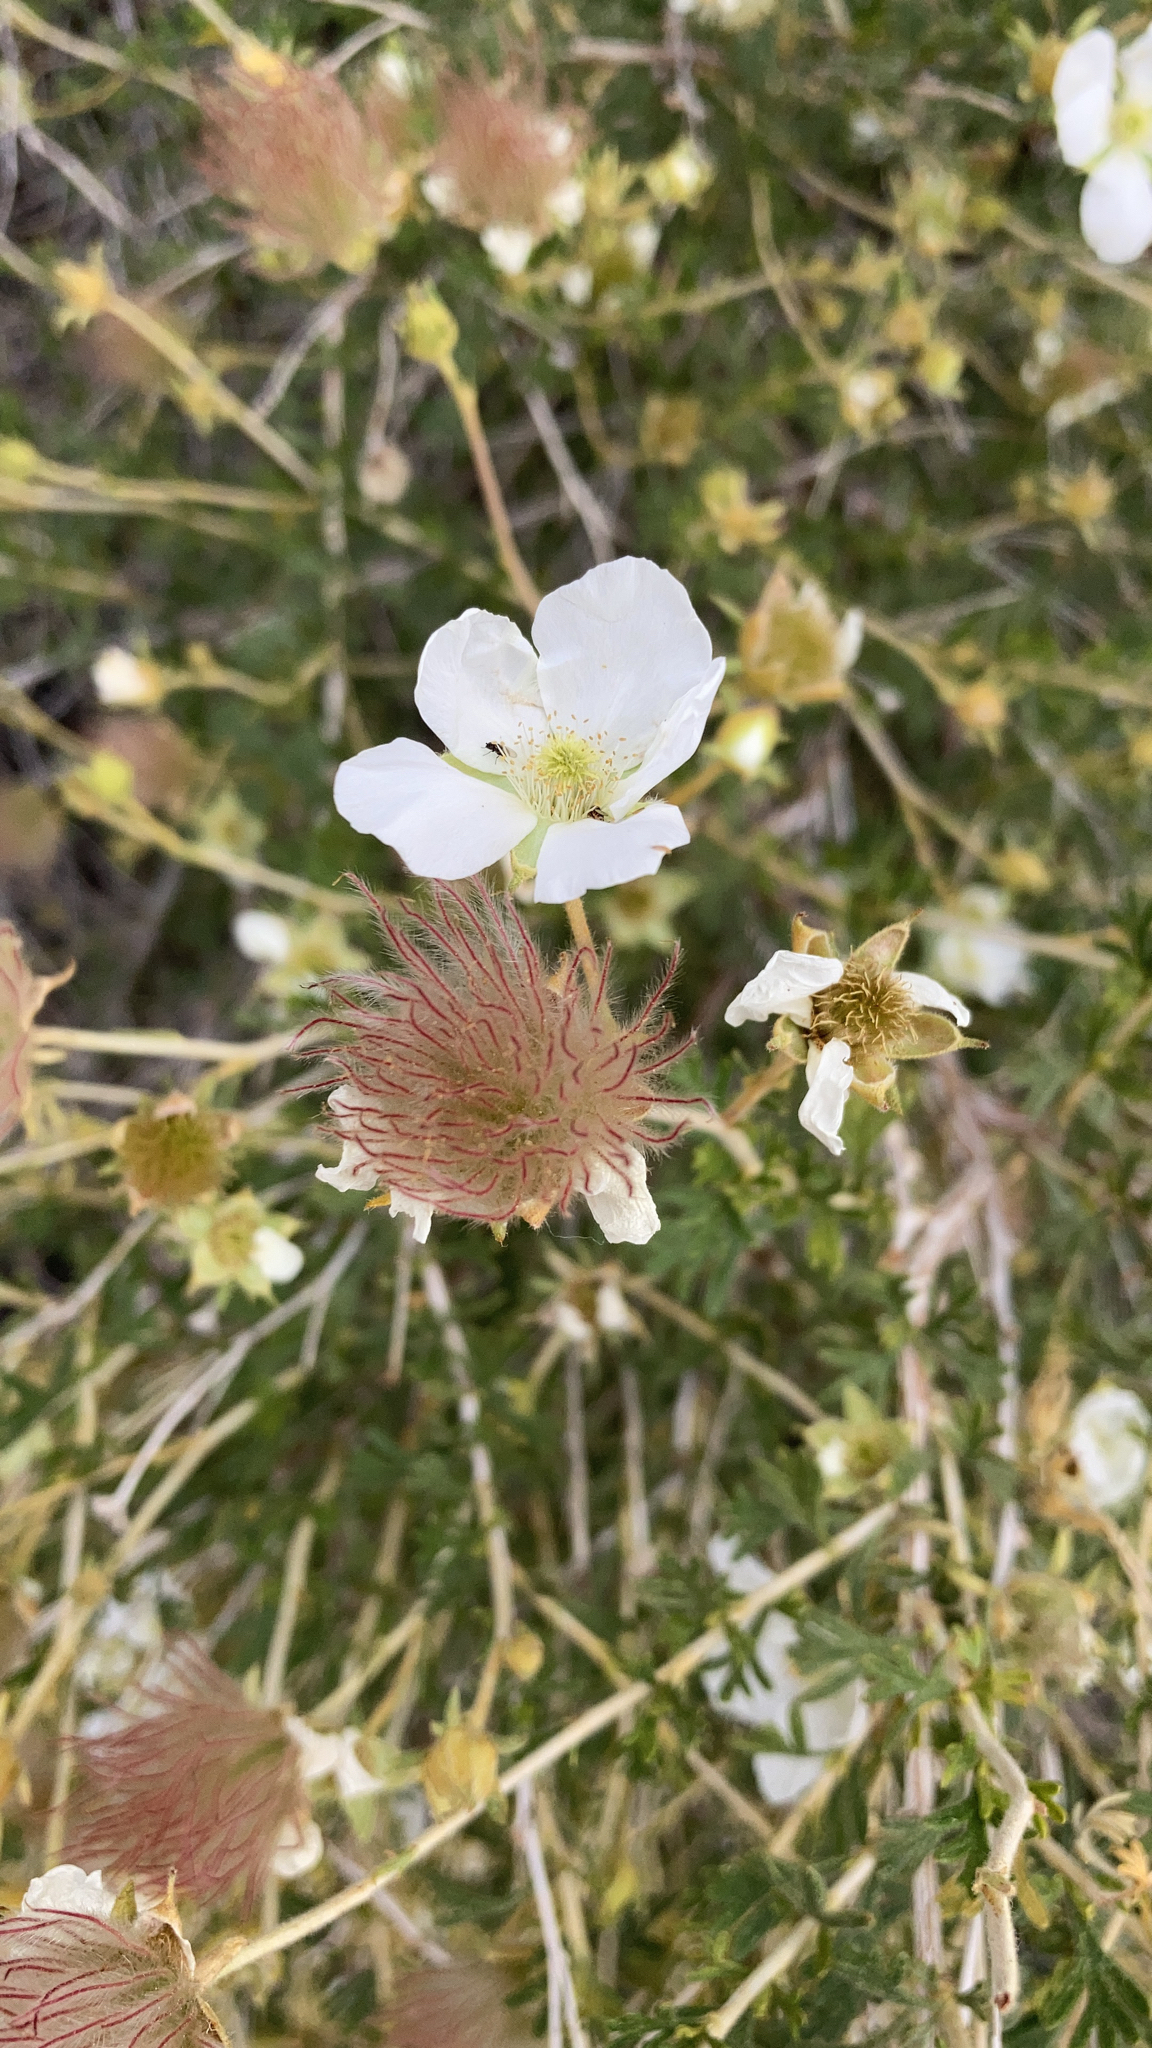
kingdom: Plantae
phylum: Tracheophyta
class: Magnoliopsida
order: Rosales
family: Rosaceae
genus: Fallugia
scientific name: Fallugia paradoxa
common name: Apache-plume
